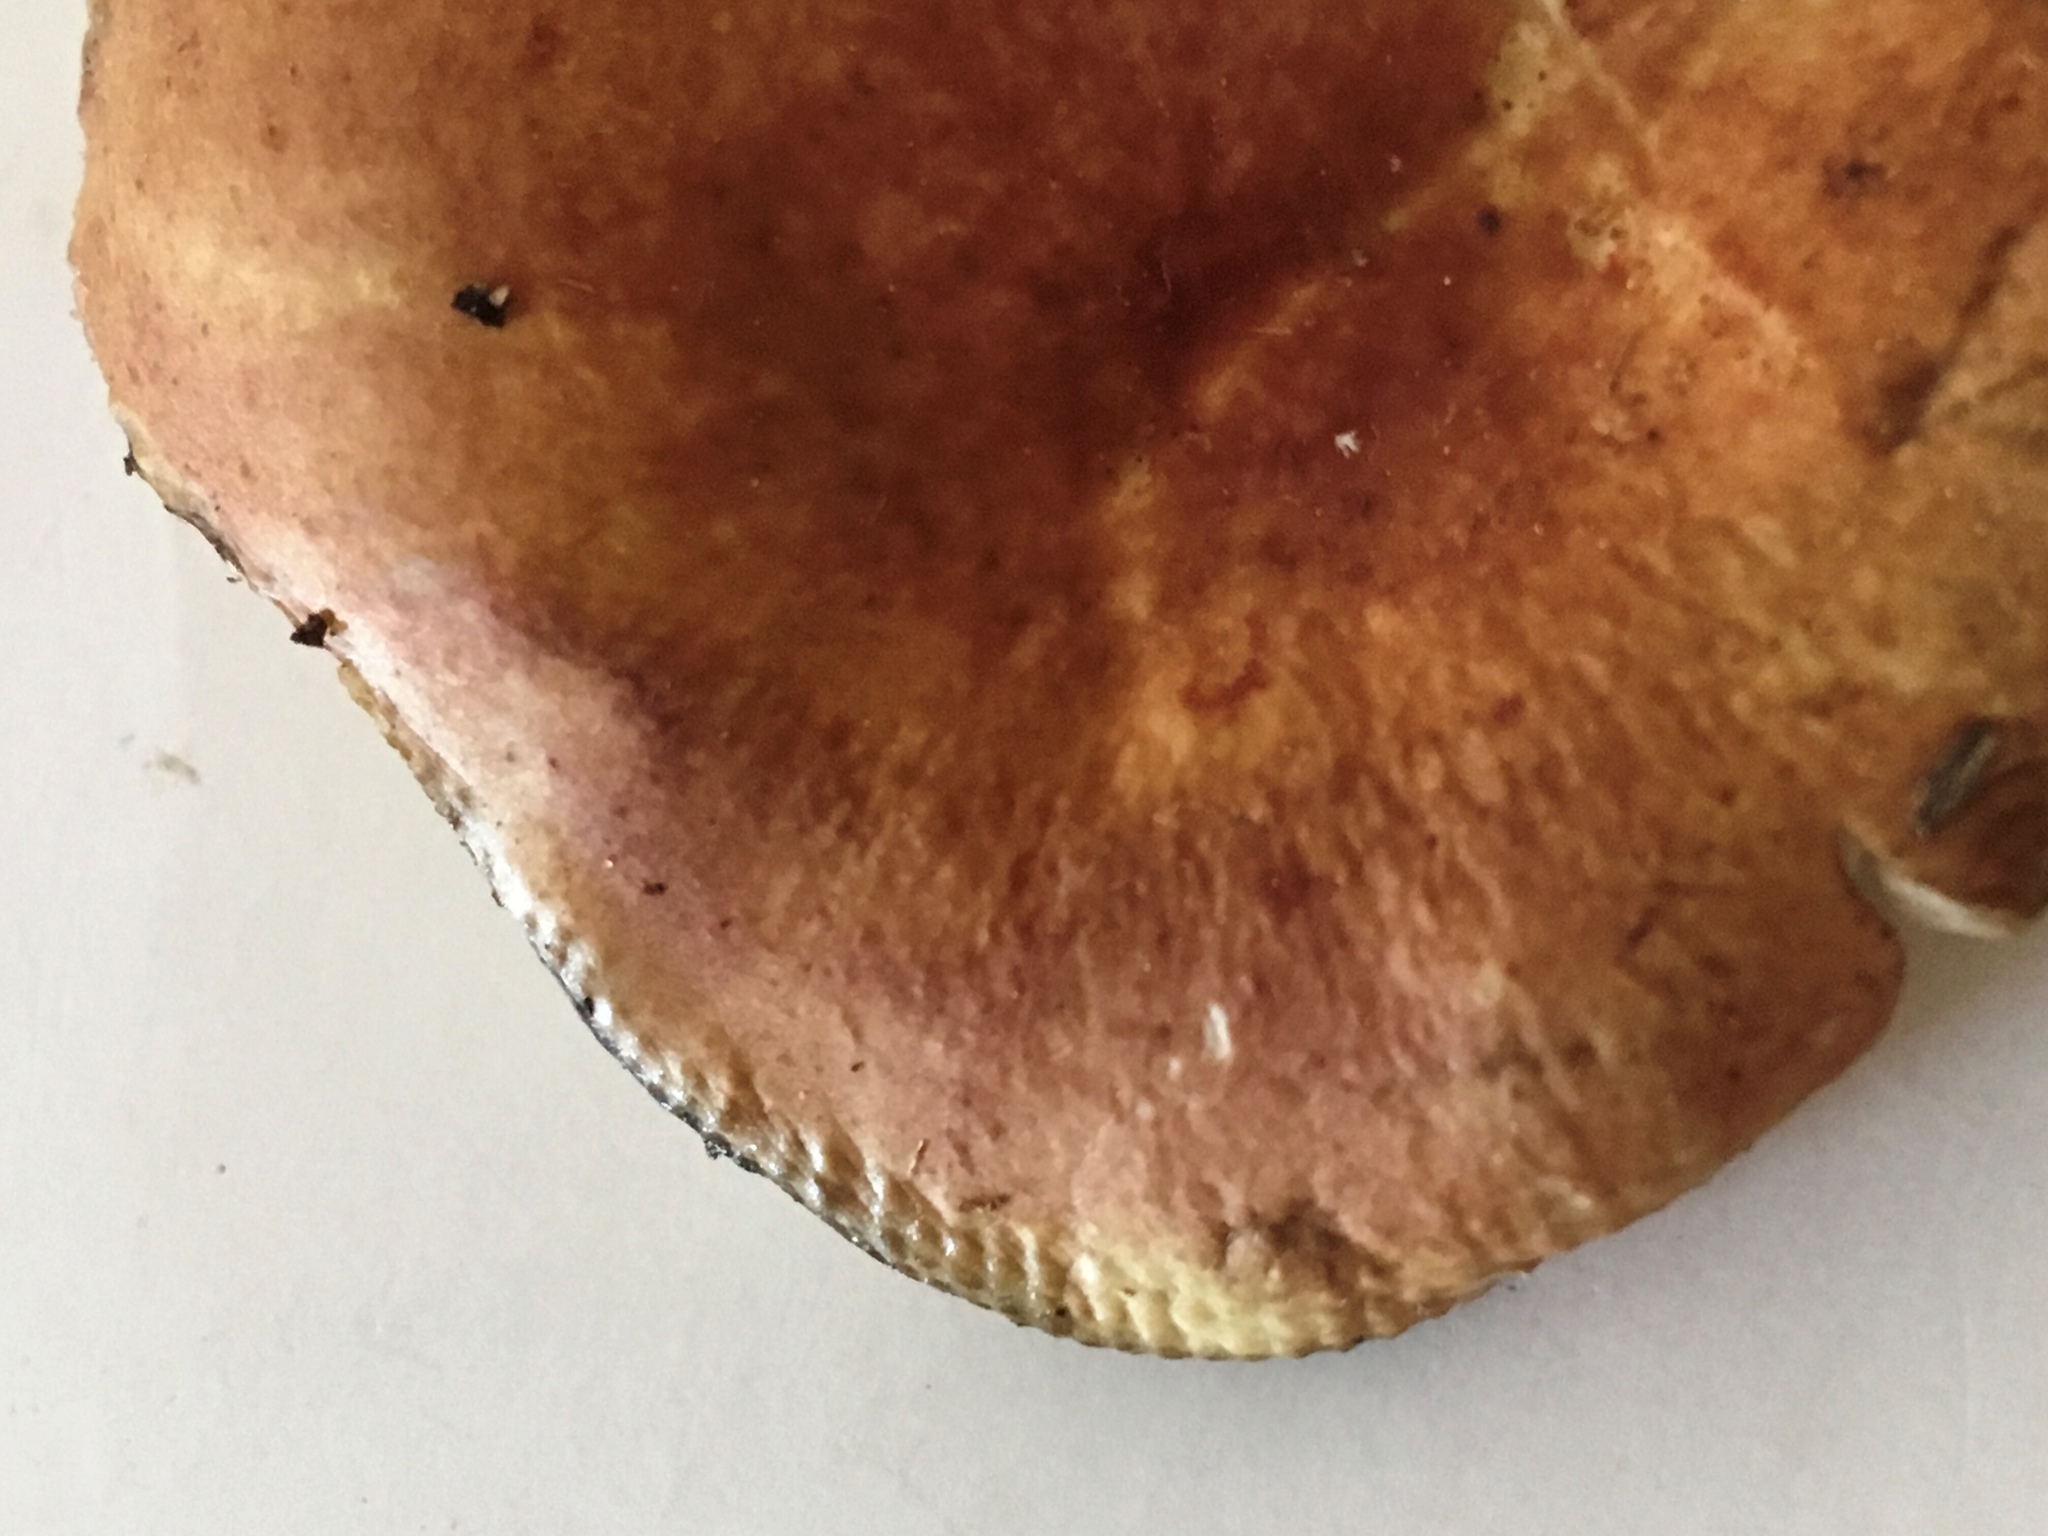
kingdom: Fungi
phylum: Basidiomycota
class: Agaricomycetes
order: Russulales
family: Russulaceae
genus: Russula
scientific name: Russula rugulosa
